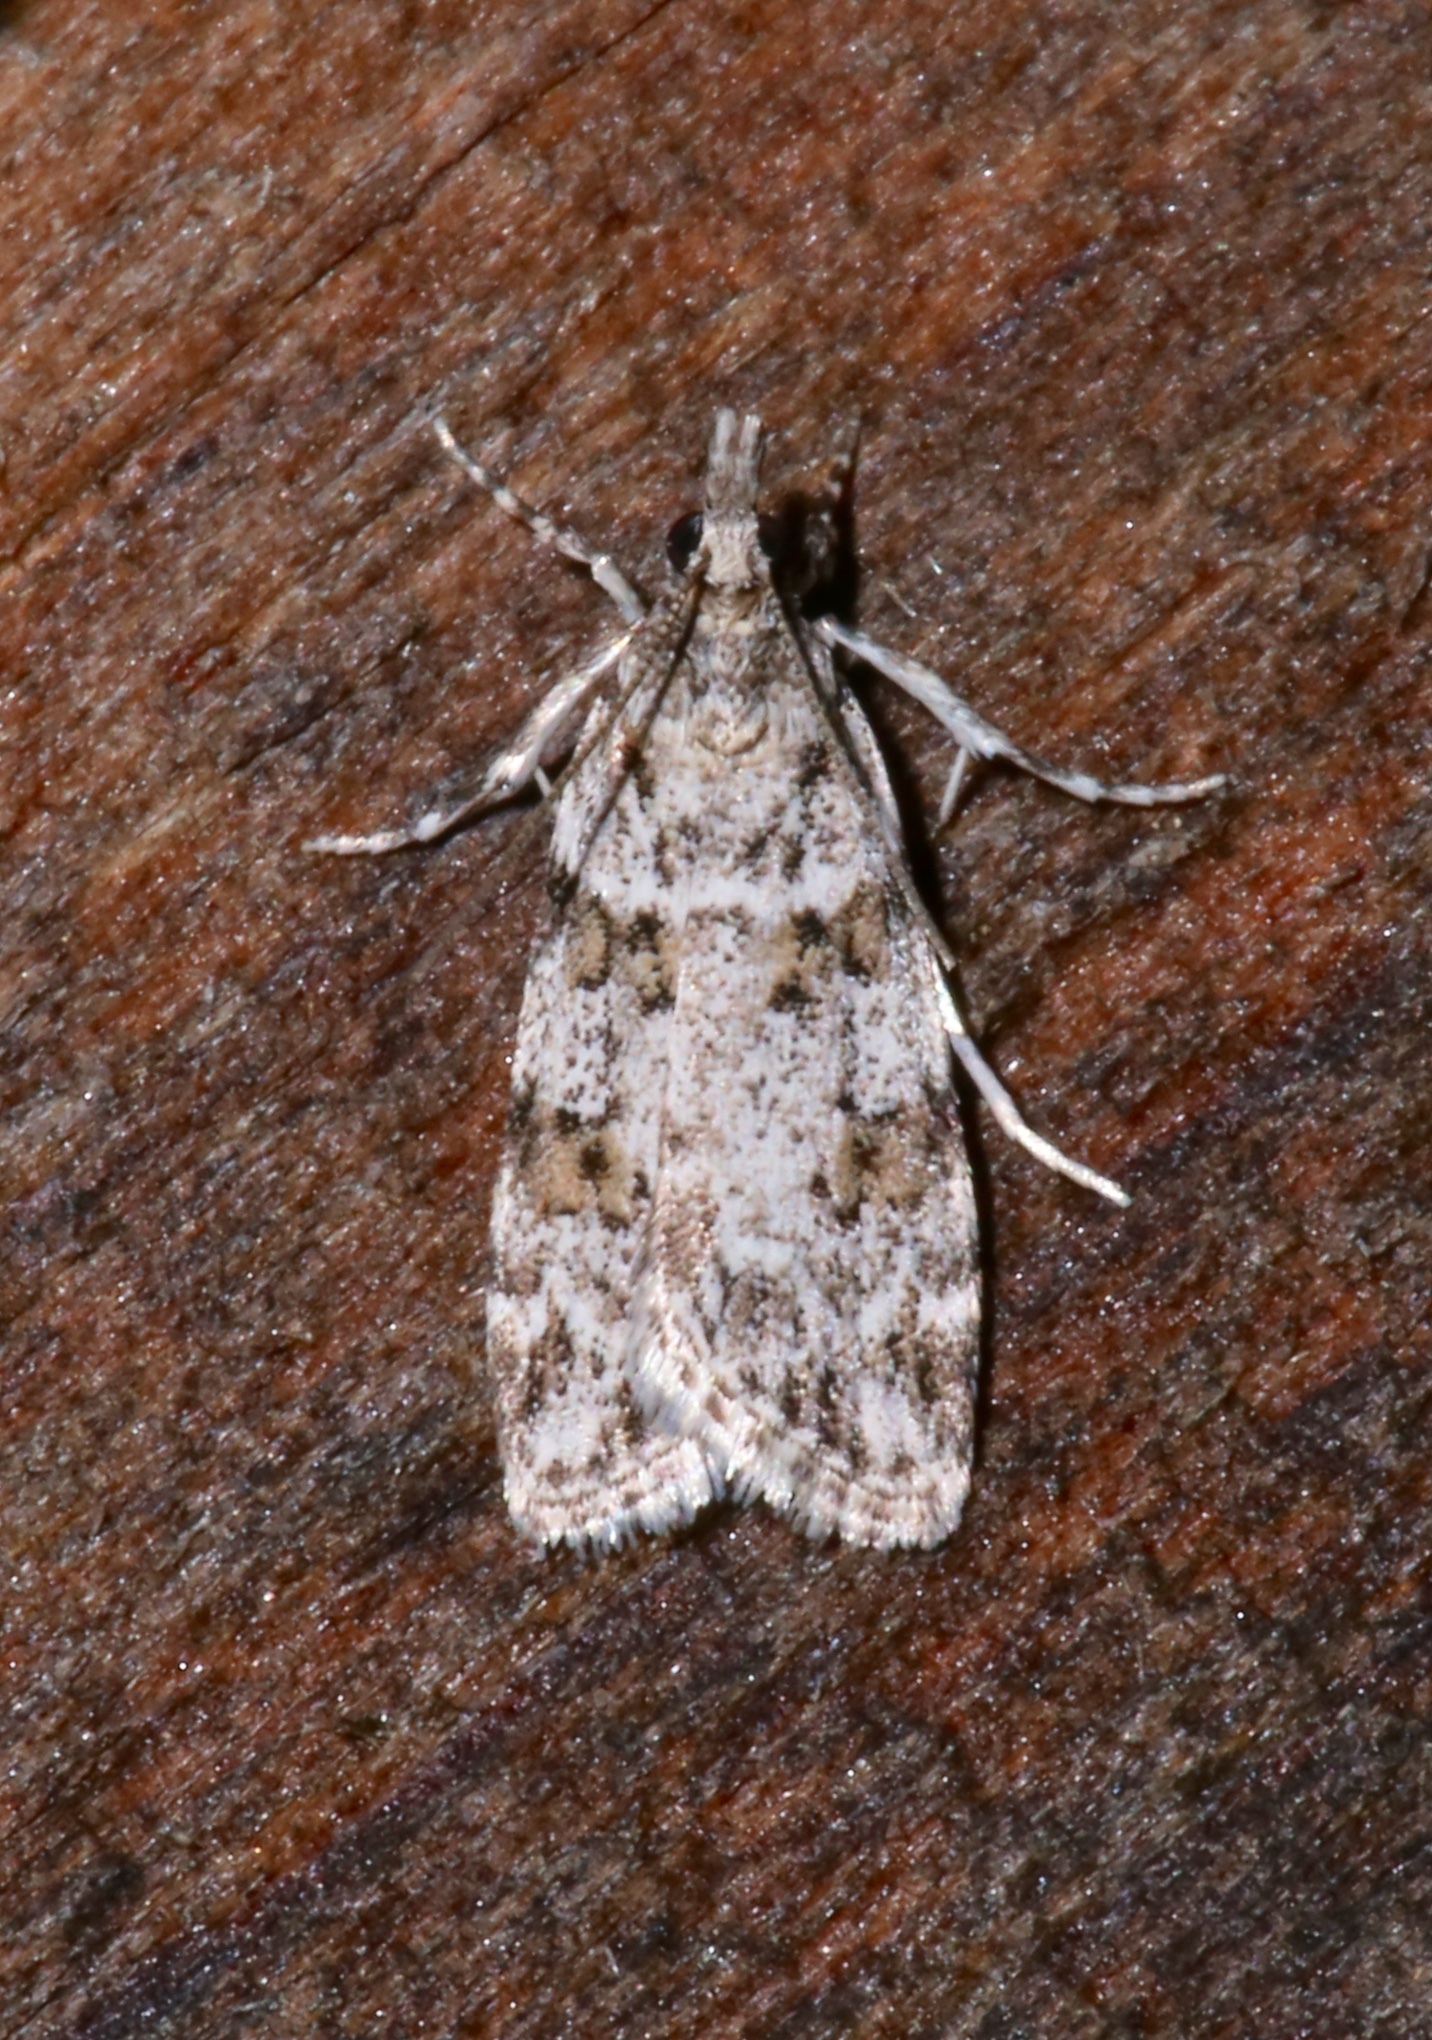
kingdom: Animalia
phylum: Arthropoda
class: Insecta
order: Lepidoptera
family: Crambidae
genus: Scoparia
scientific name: Scoparia biplagialis
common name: Double-striped scoparia moth
